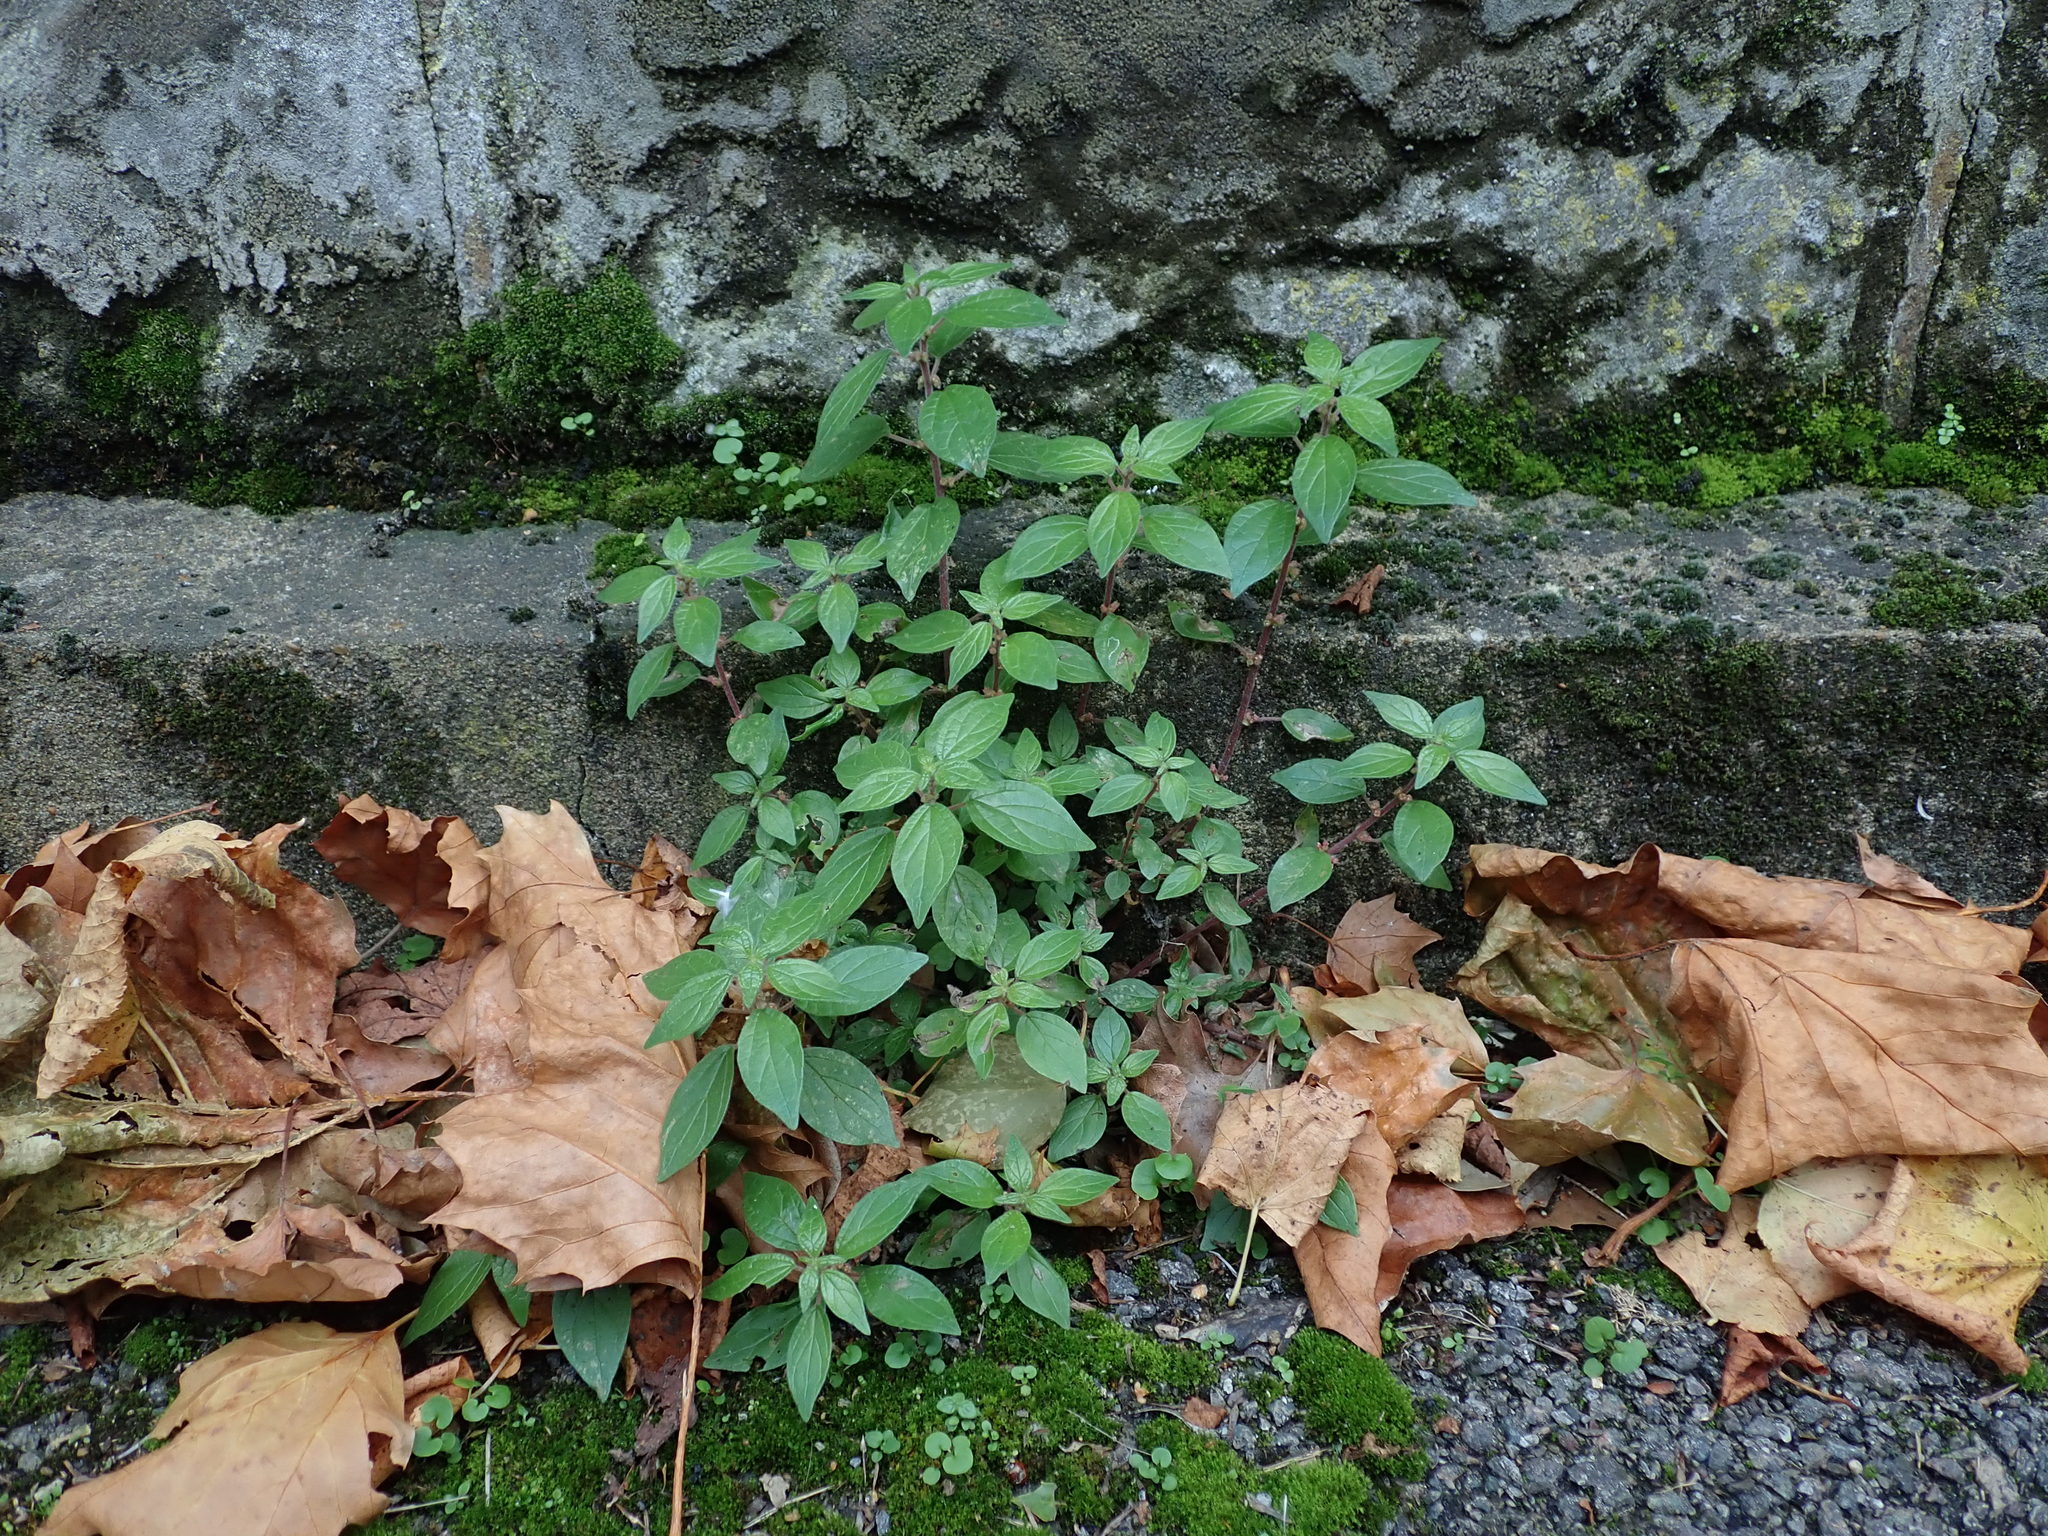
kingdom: Plantae
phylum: Tracheophyta
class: Magnoliopsida
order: Rosales
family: Urticaceae
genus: Parietaria
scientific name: Parietaria judaica
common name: Pellitory-of-the-wall
